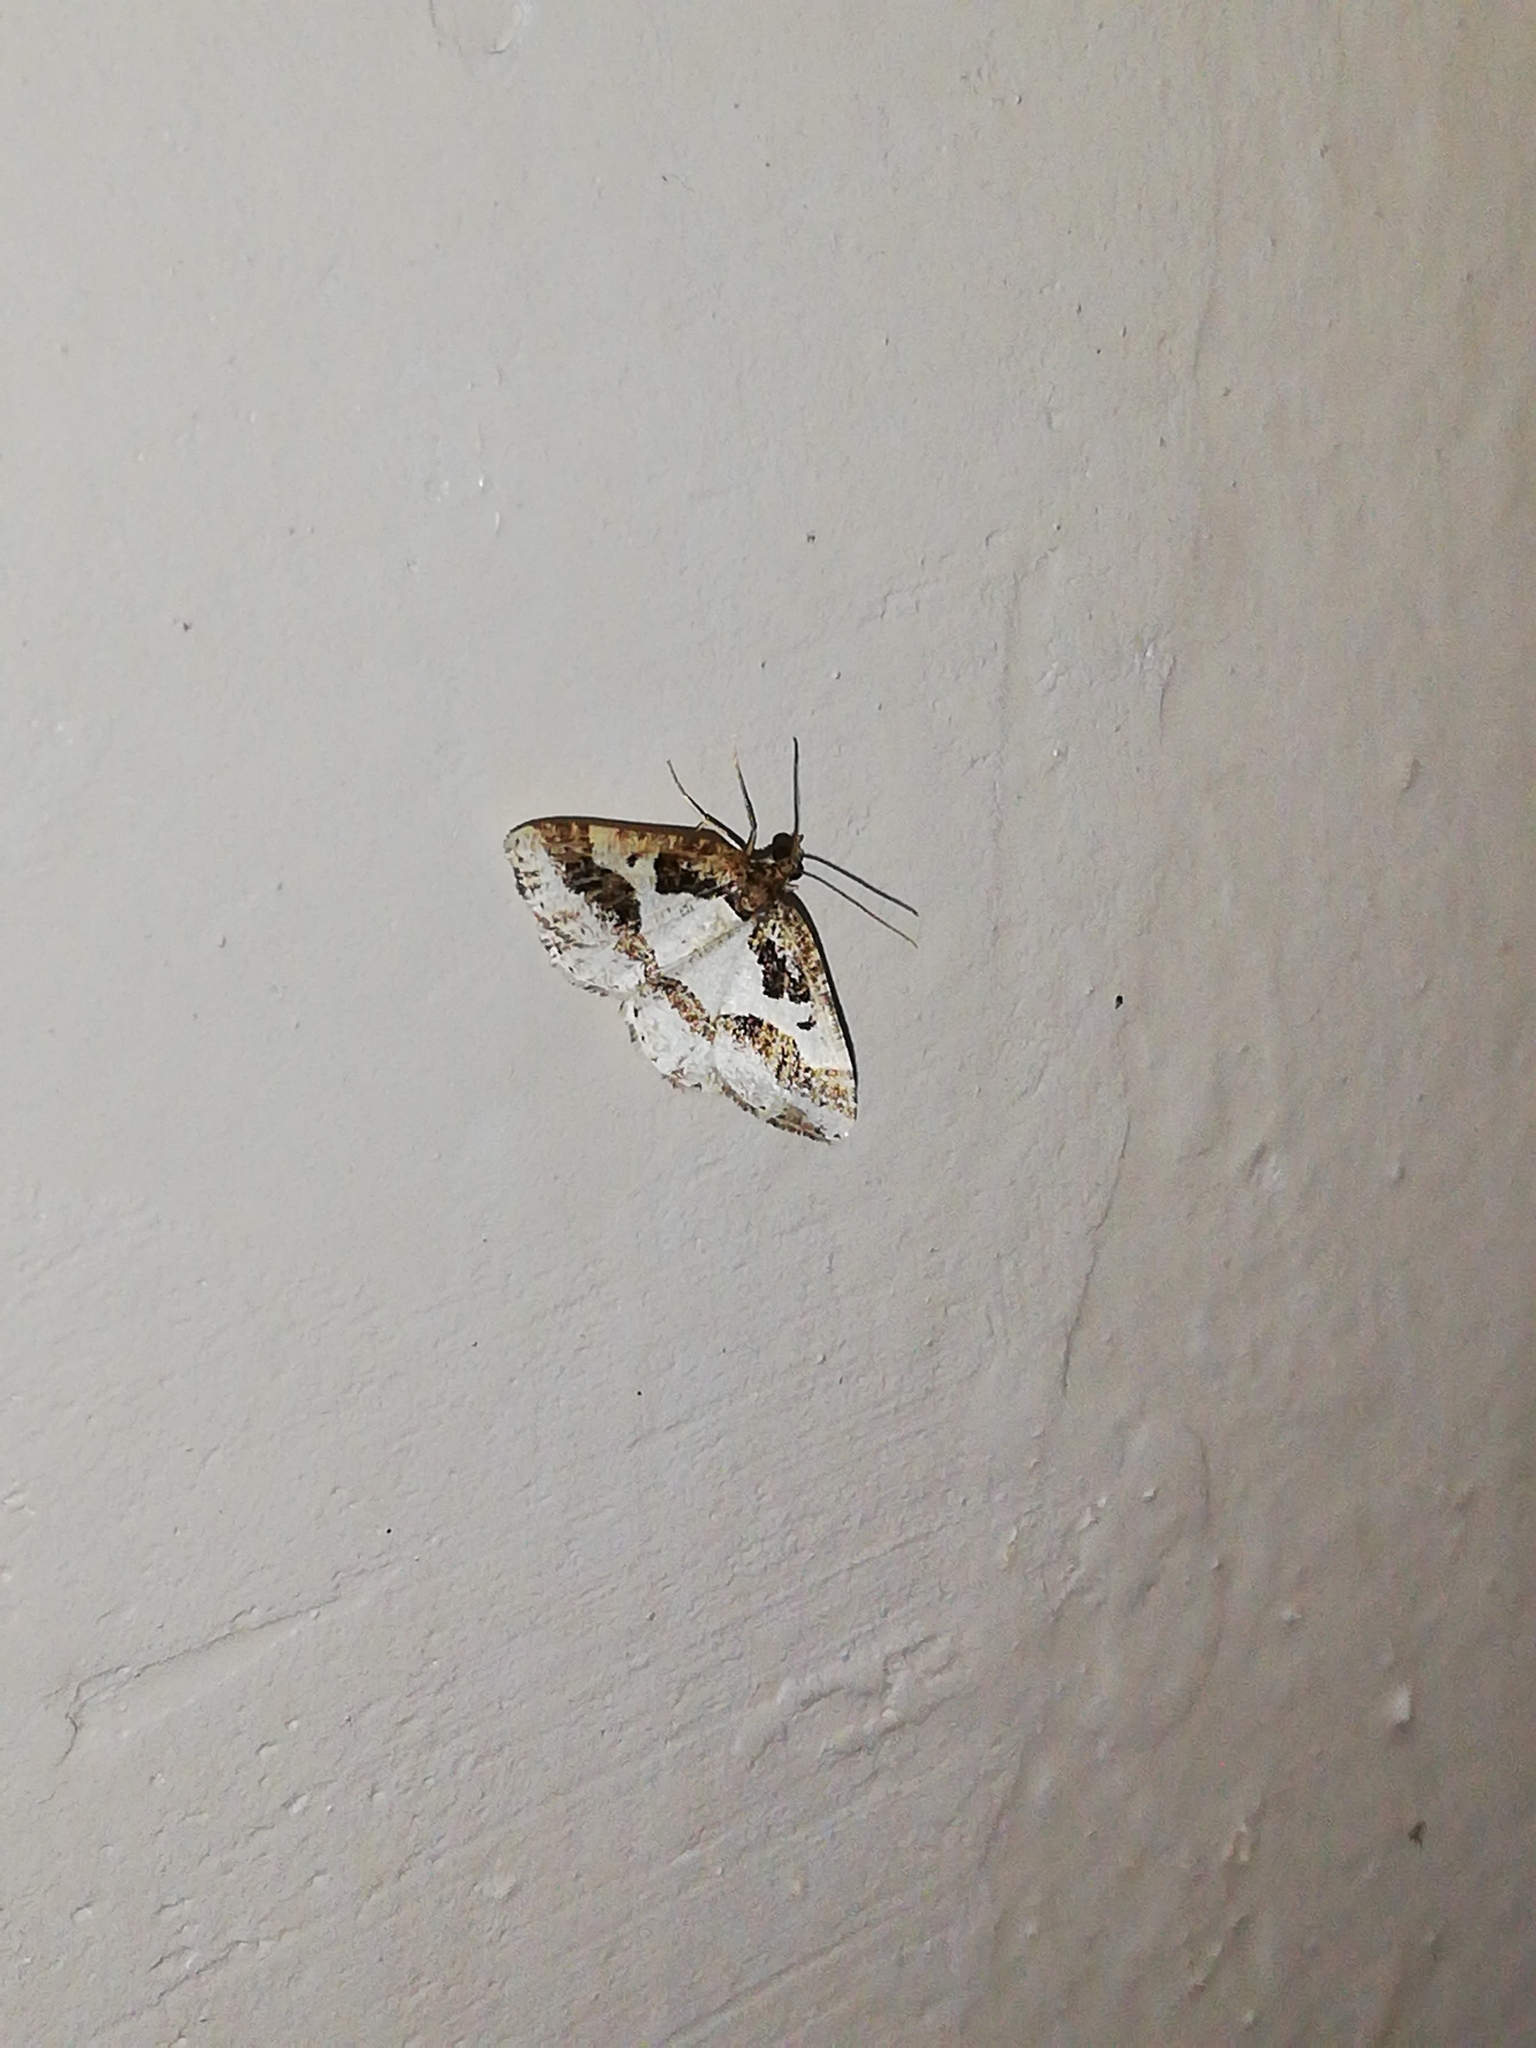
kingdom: Animalia
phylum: Arthropoda
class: Insecta
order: Lepidoptera
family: Geometridae
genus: Ligdia
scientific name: Ligdia interrupta
